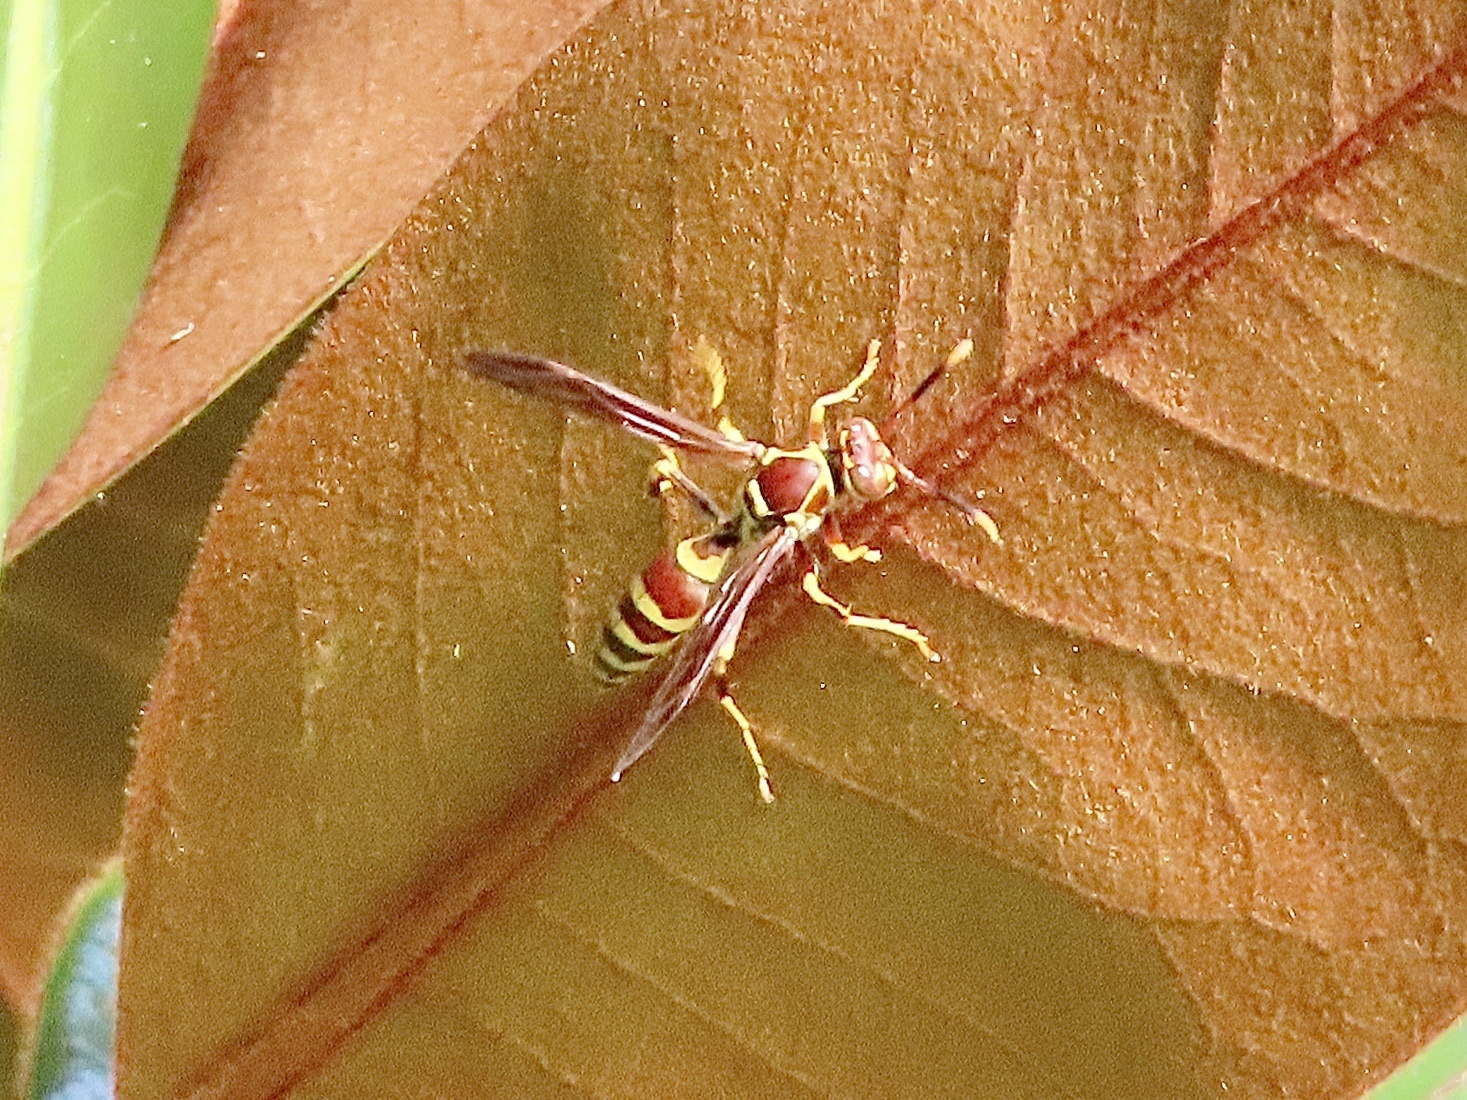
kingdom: Animalia
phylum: Arthropoda
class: Insecta
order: Hymenoptera
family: Eumenidae
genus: Polistes
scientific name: Polistes exclamans
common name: Paper wasp
